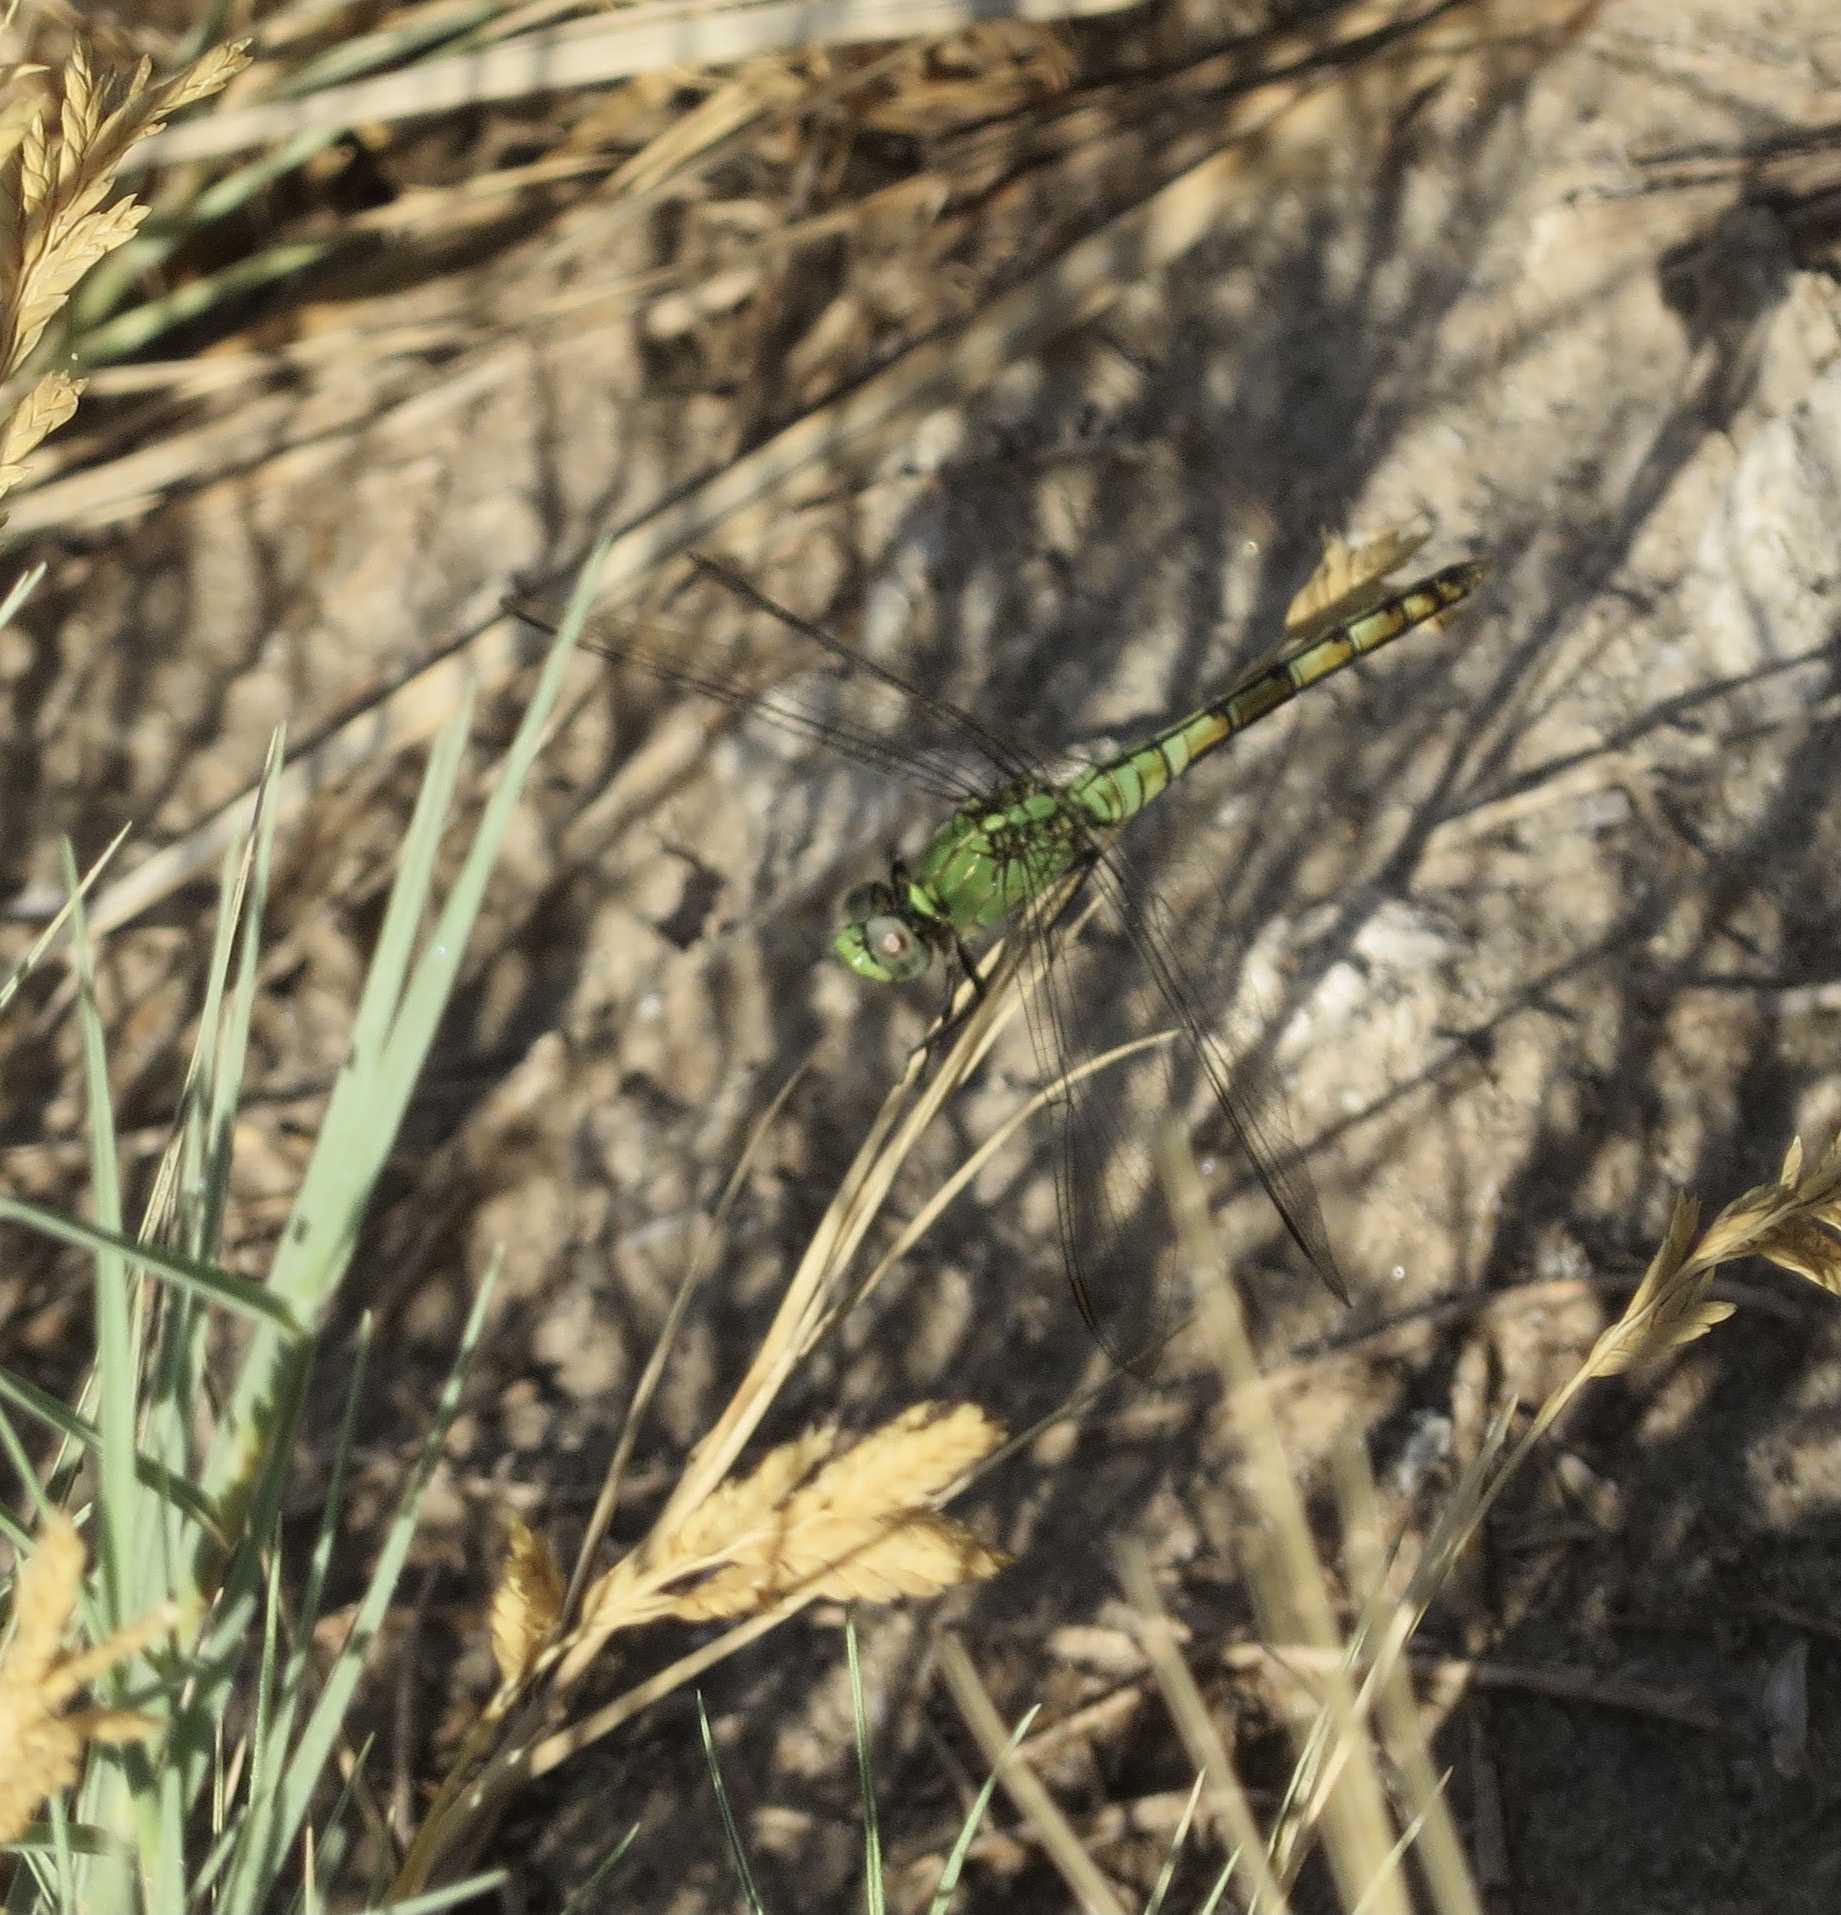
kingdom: Animalia
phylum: Arthropoda
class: Insecta
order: Odonata
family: Libellulidae
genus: Erythemis
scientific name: Erythemis collocata
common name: Western pondhawk
